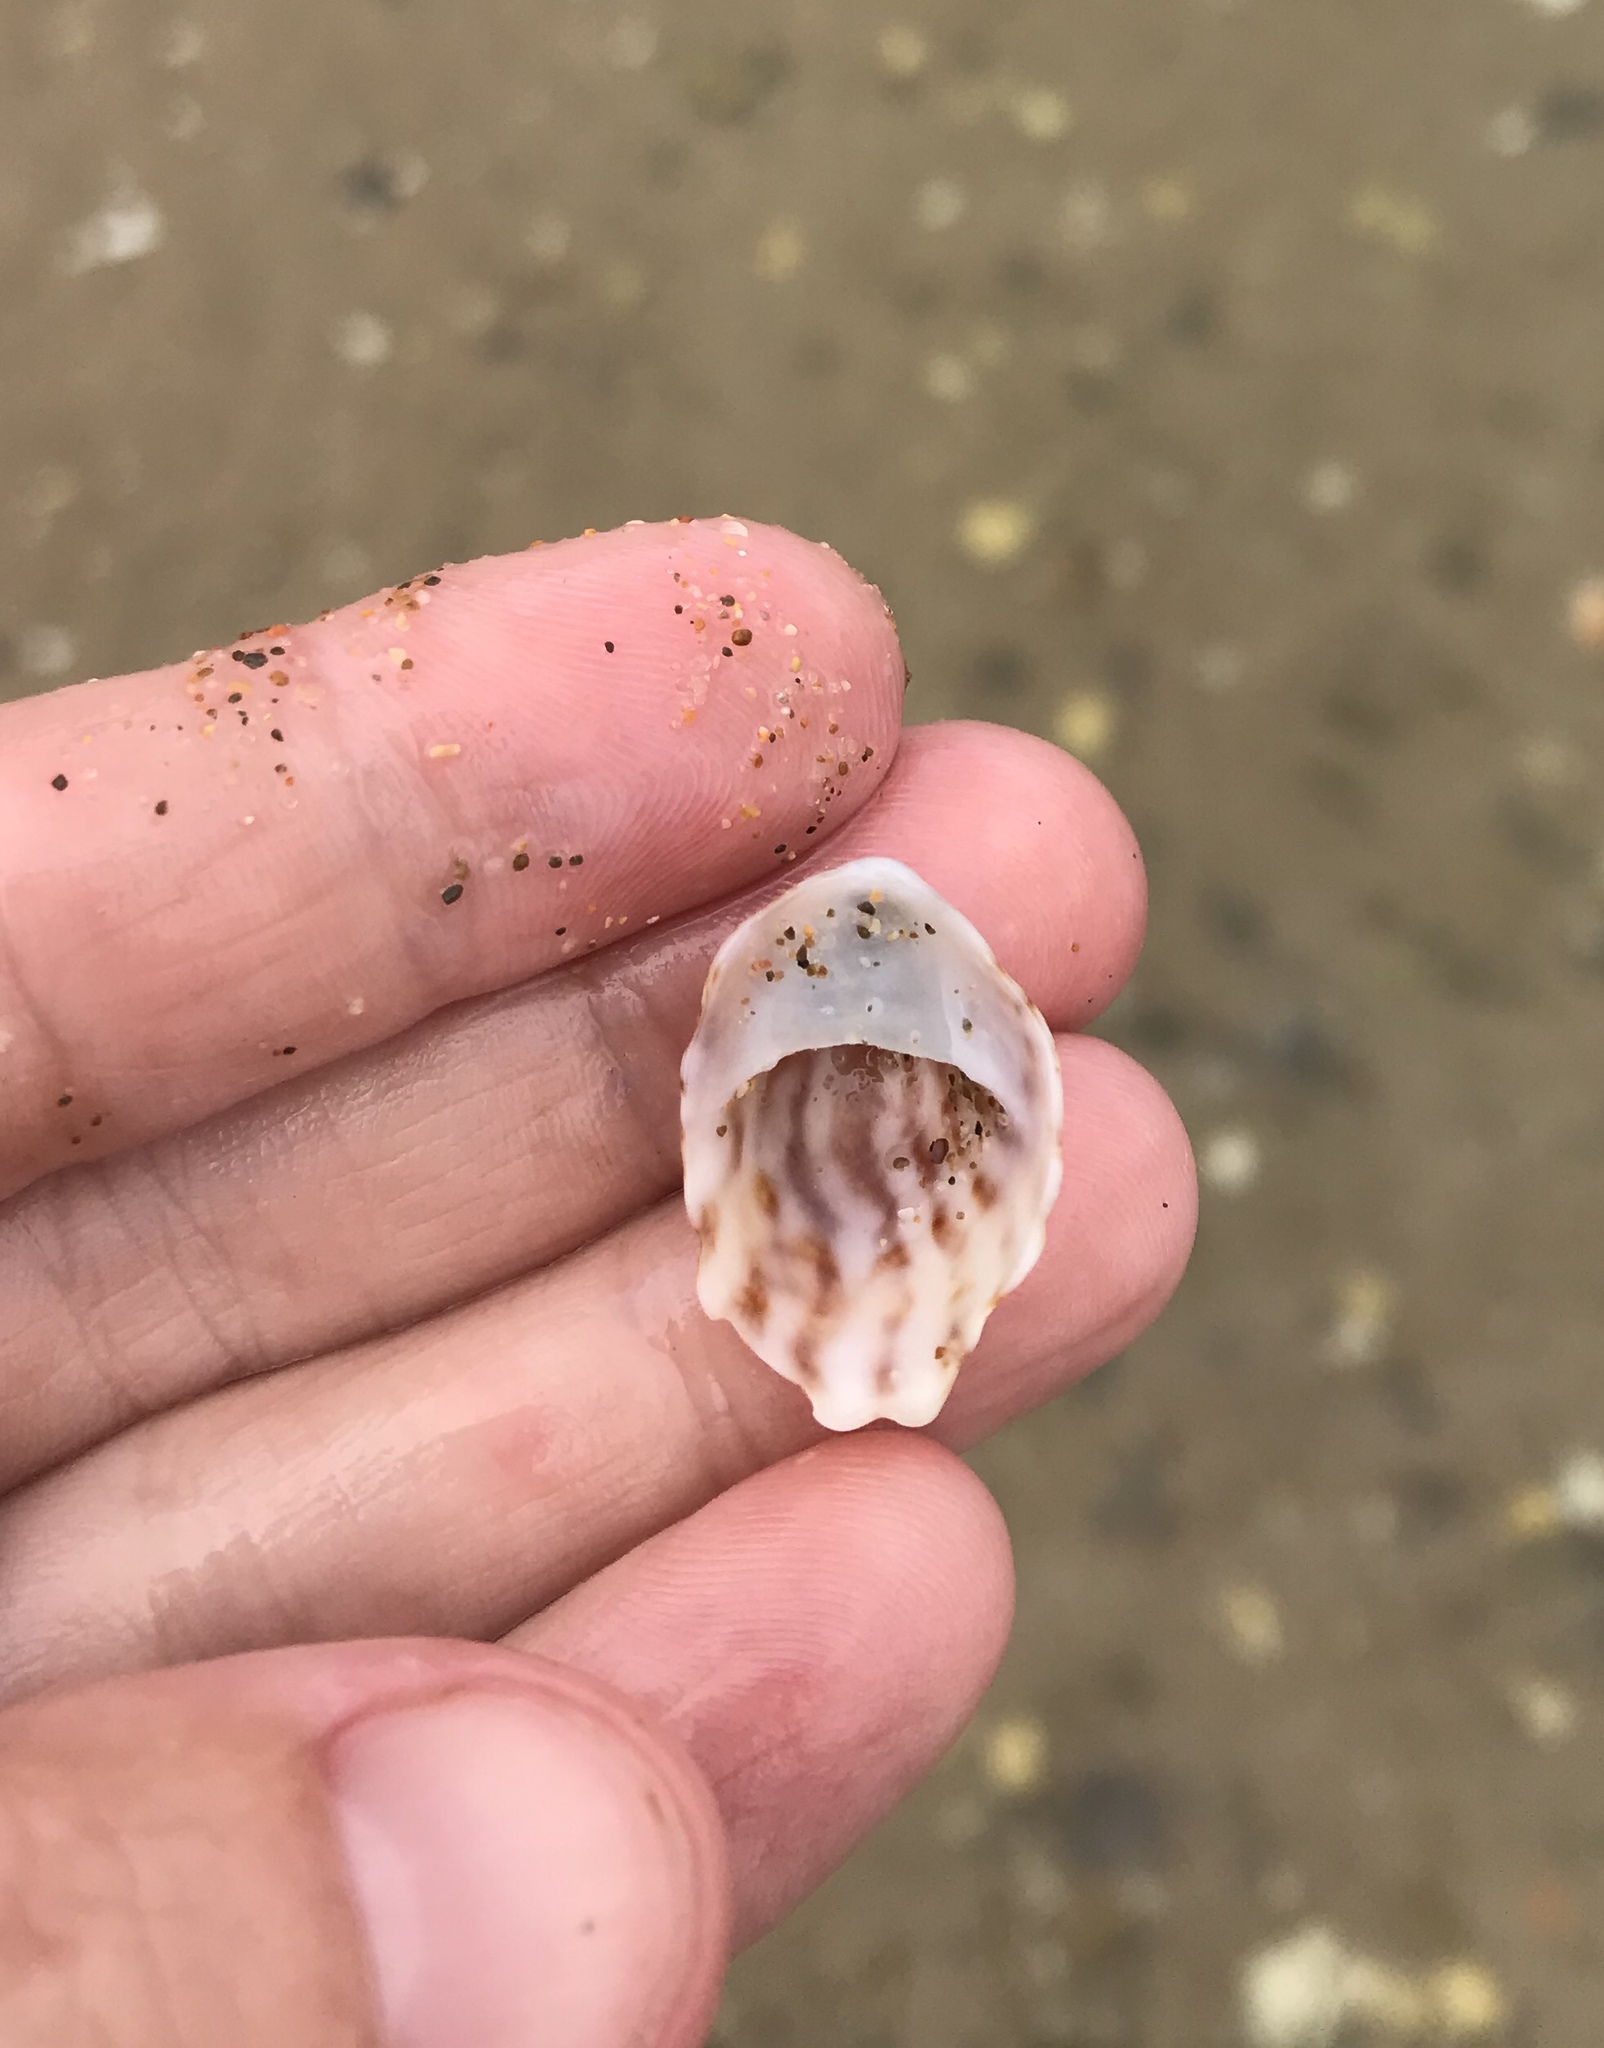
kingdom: Animalia
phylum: Mollusca
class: Gastropoda
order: Littorinimorpha
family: Calyptraeidae
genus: Maoricrypta
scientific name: Maoricrypta costata
